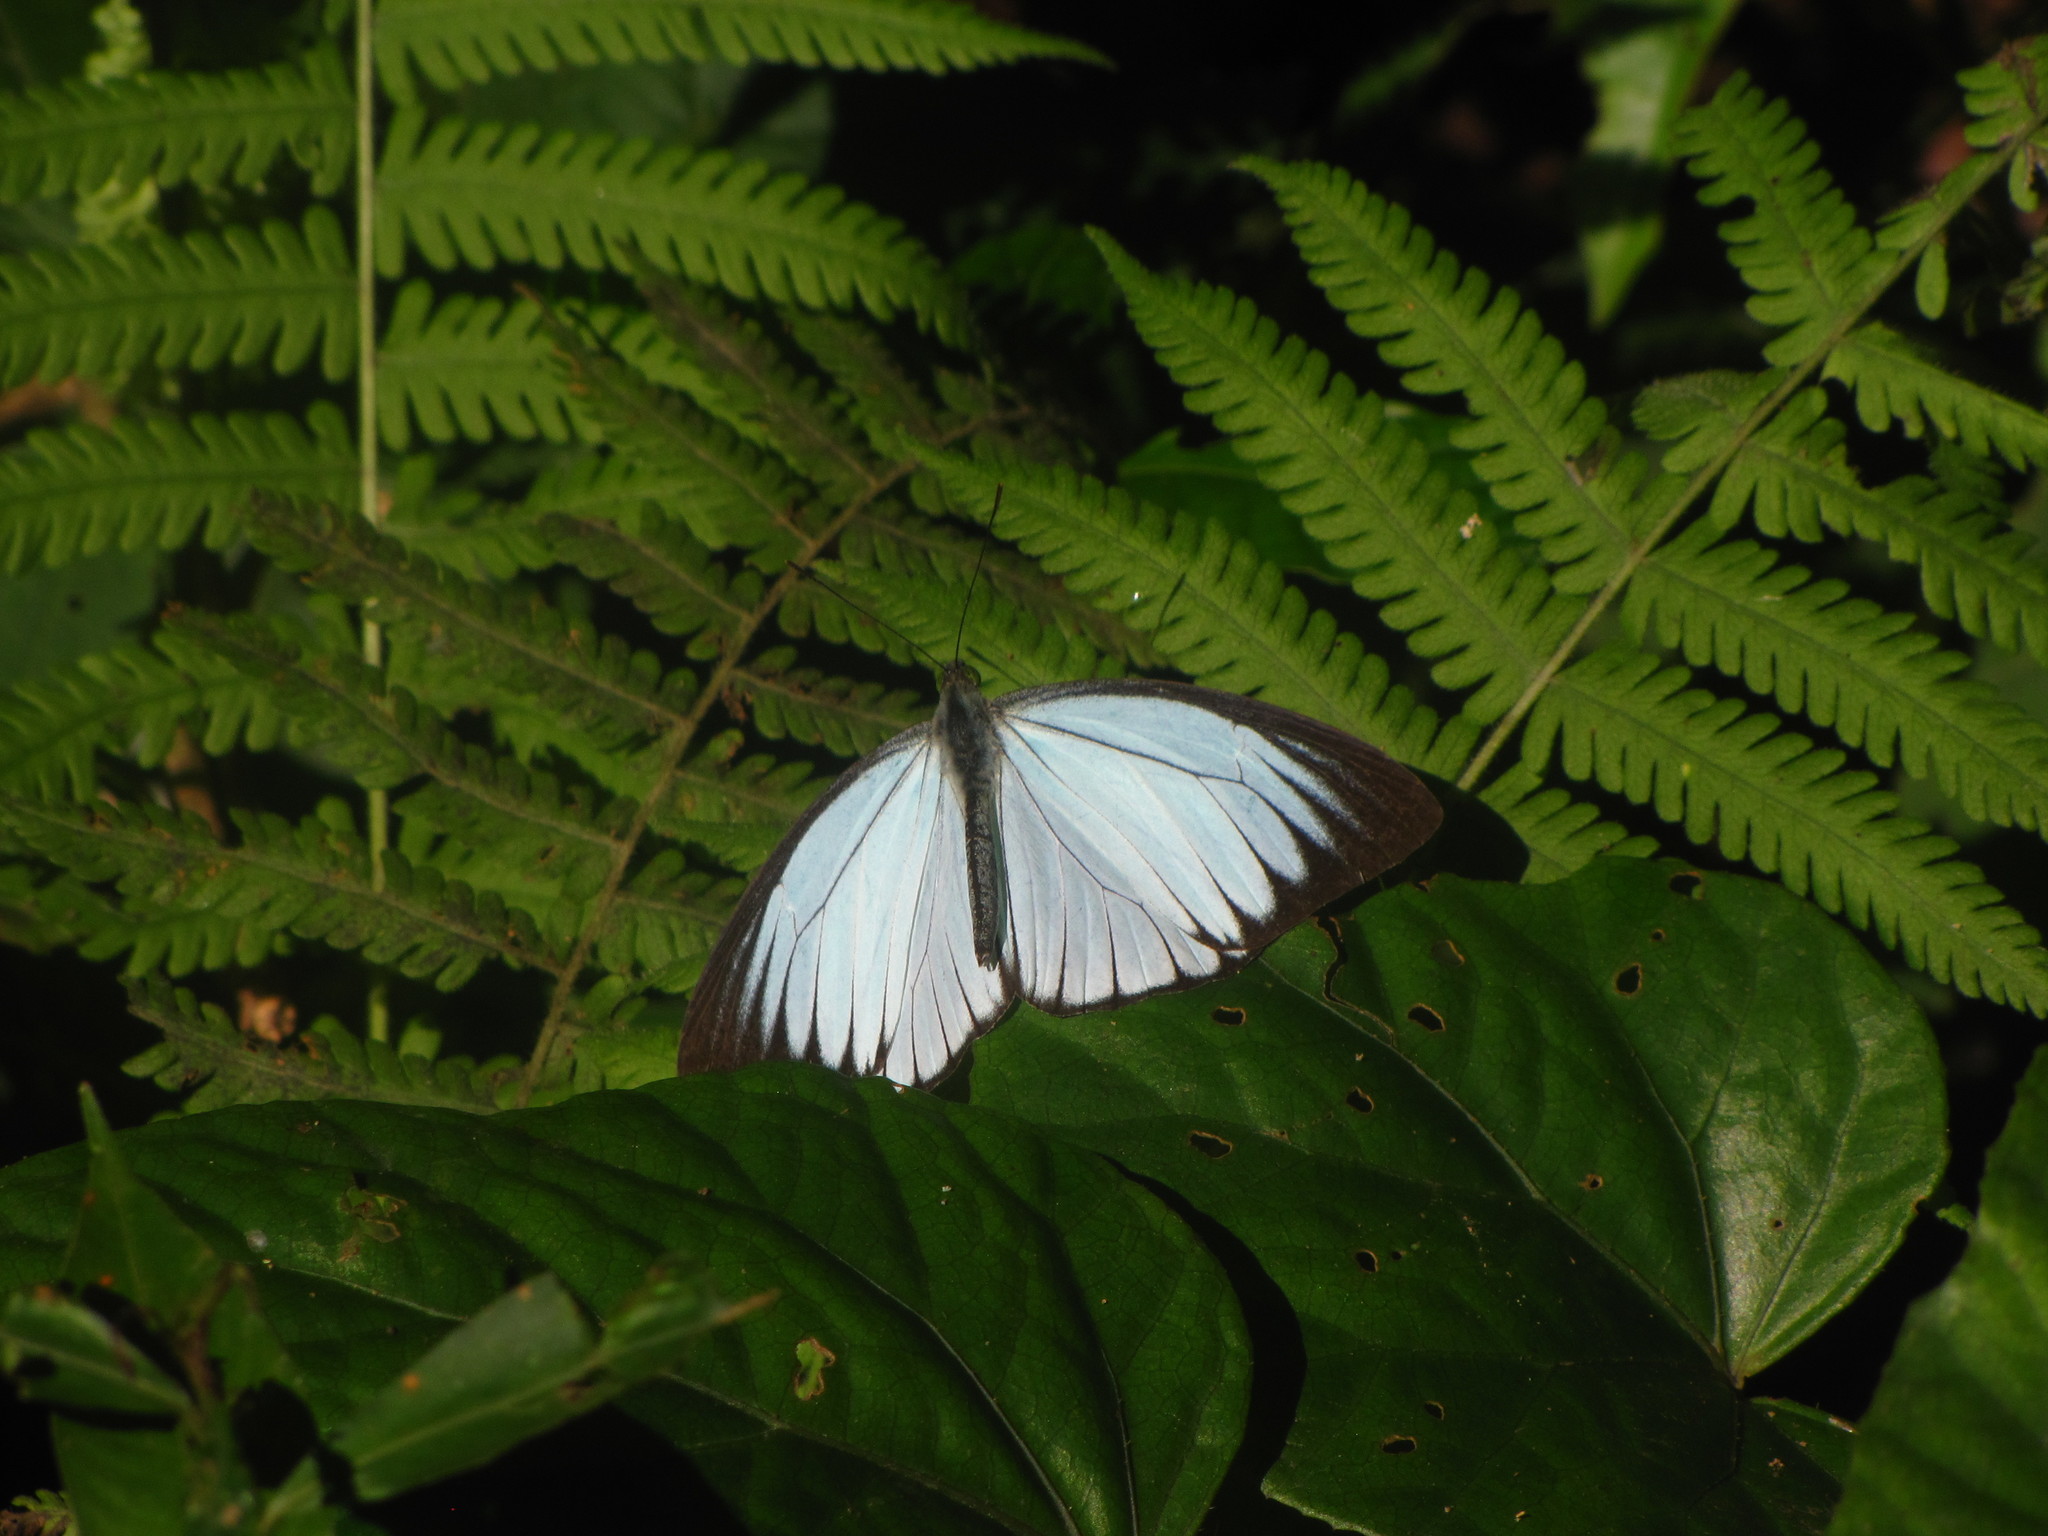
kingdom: Animalia
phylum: Arthropoda
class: Insecta
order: Lepidoptera
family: Pieridae
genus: Pareronia
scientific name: Pareronia avatar
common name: Pale wanderer
